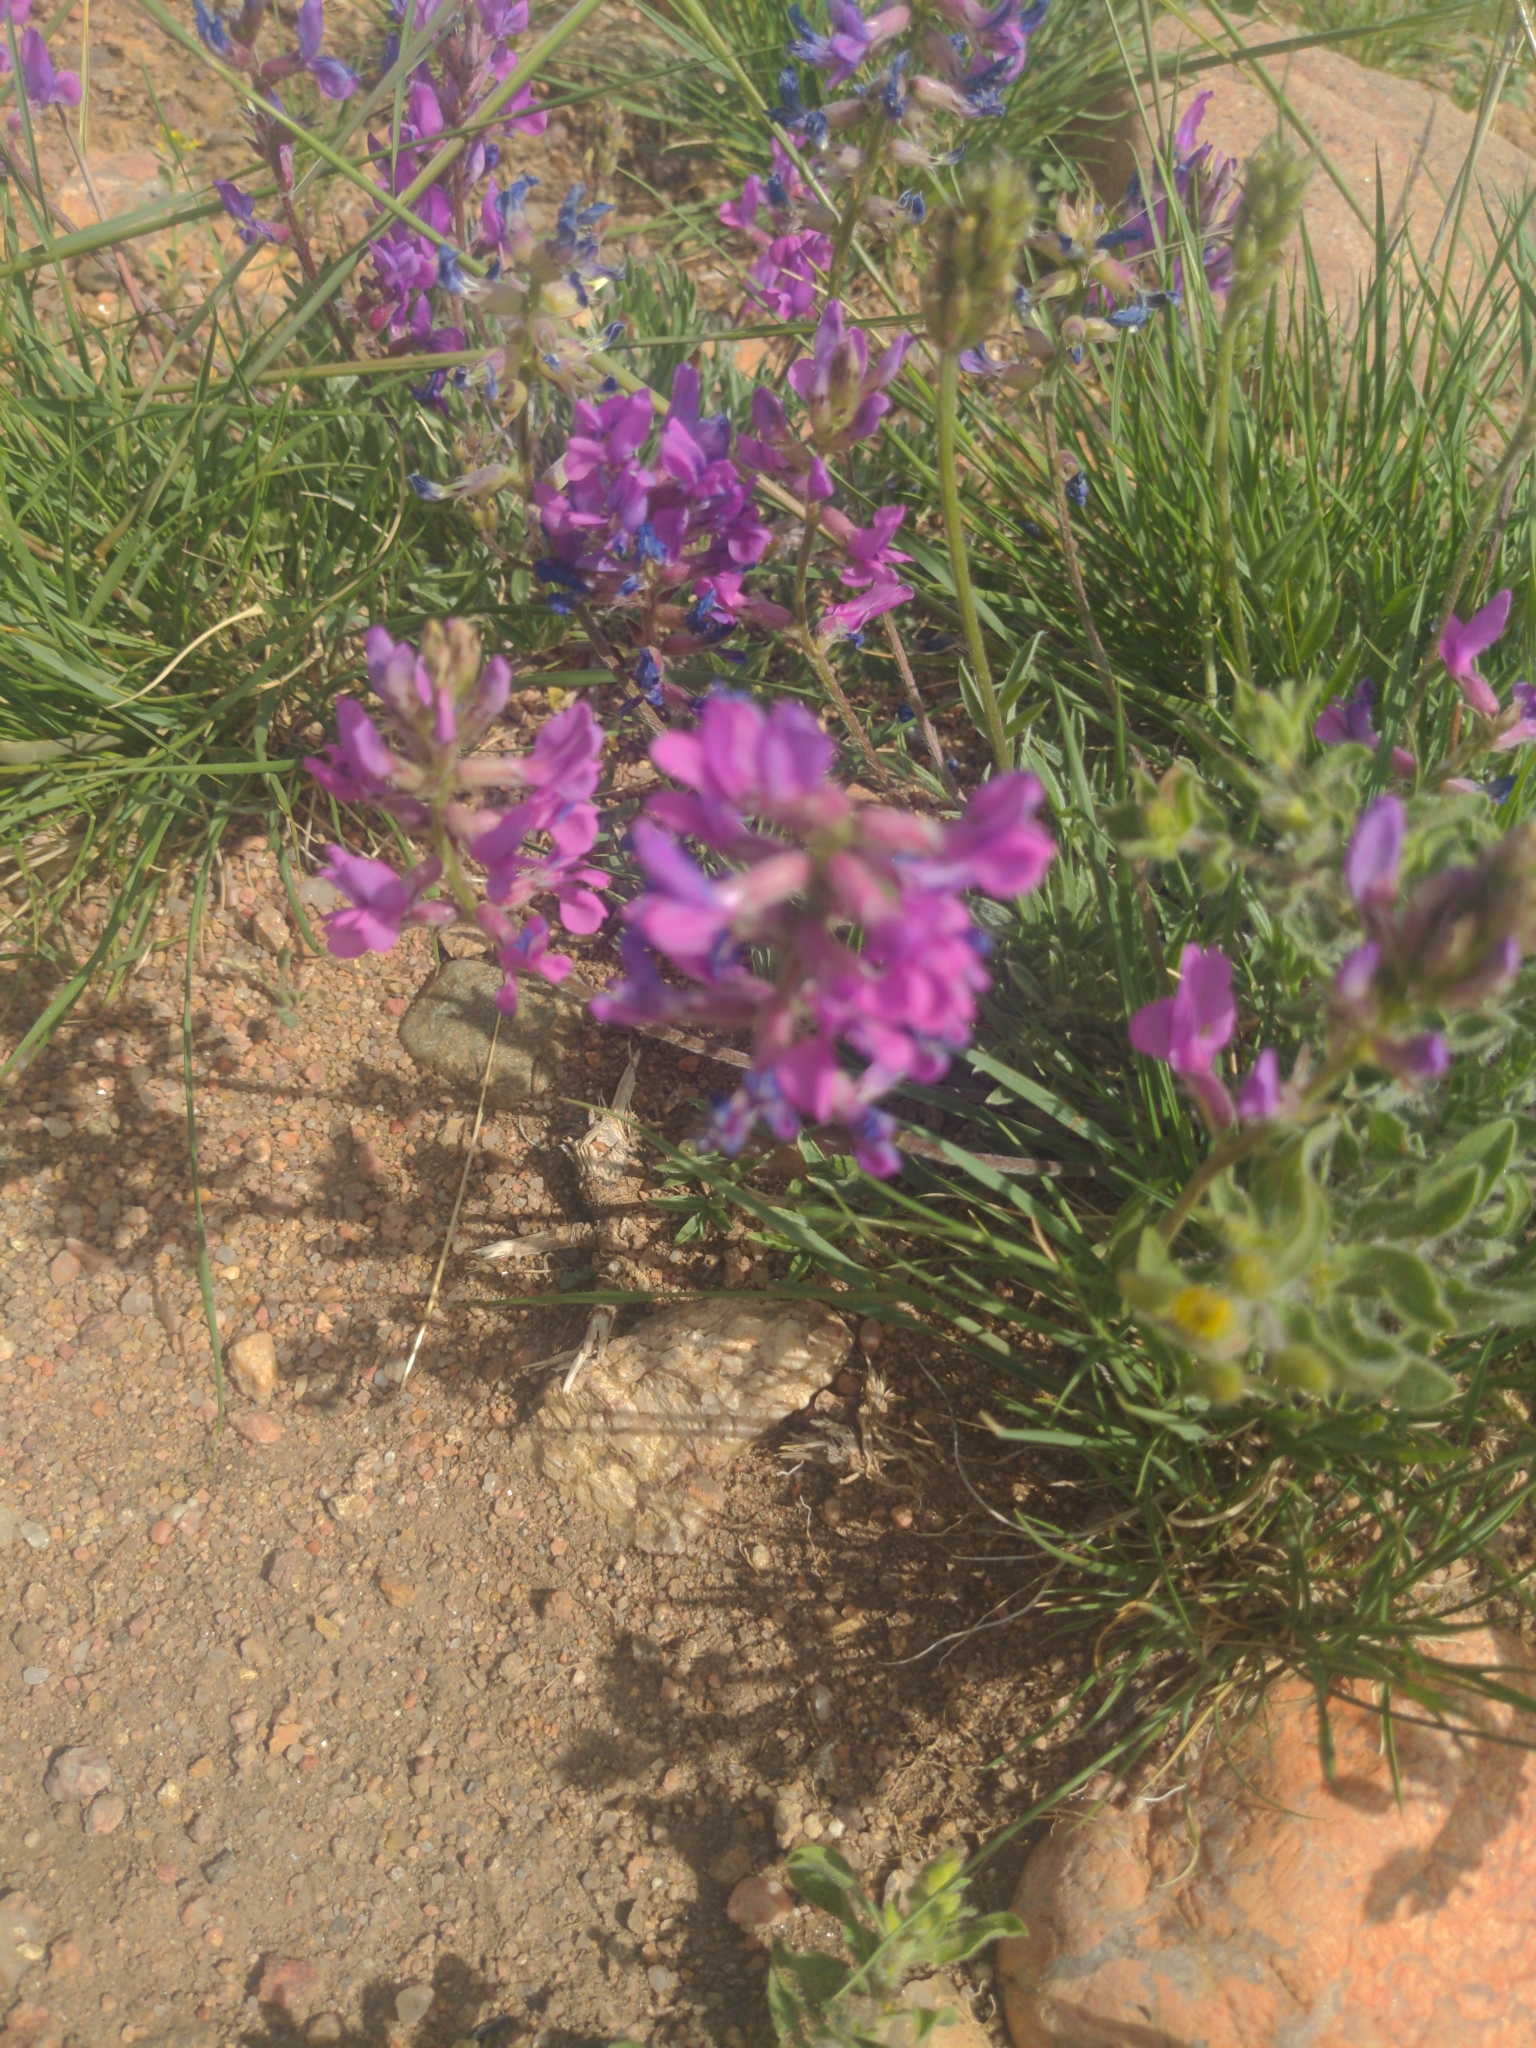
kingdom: Plantae
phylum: Tracheophyta
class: Magnoliopsida
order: Fabales
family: Fabaceae
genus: Oxytropis
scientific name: Oxytropis lambertii
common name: Purple locoweed
